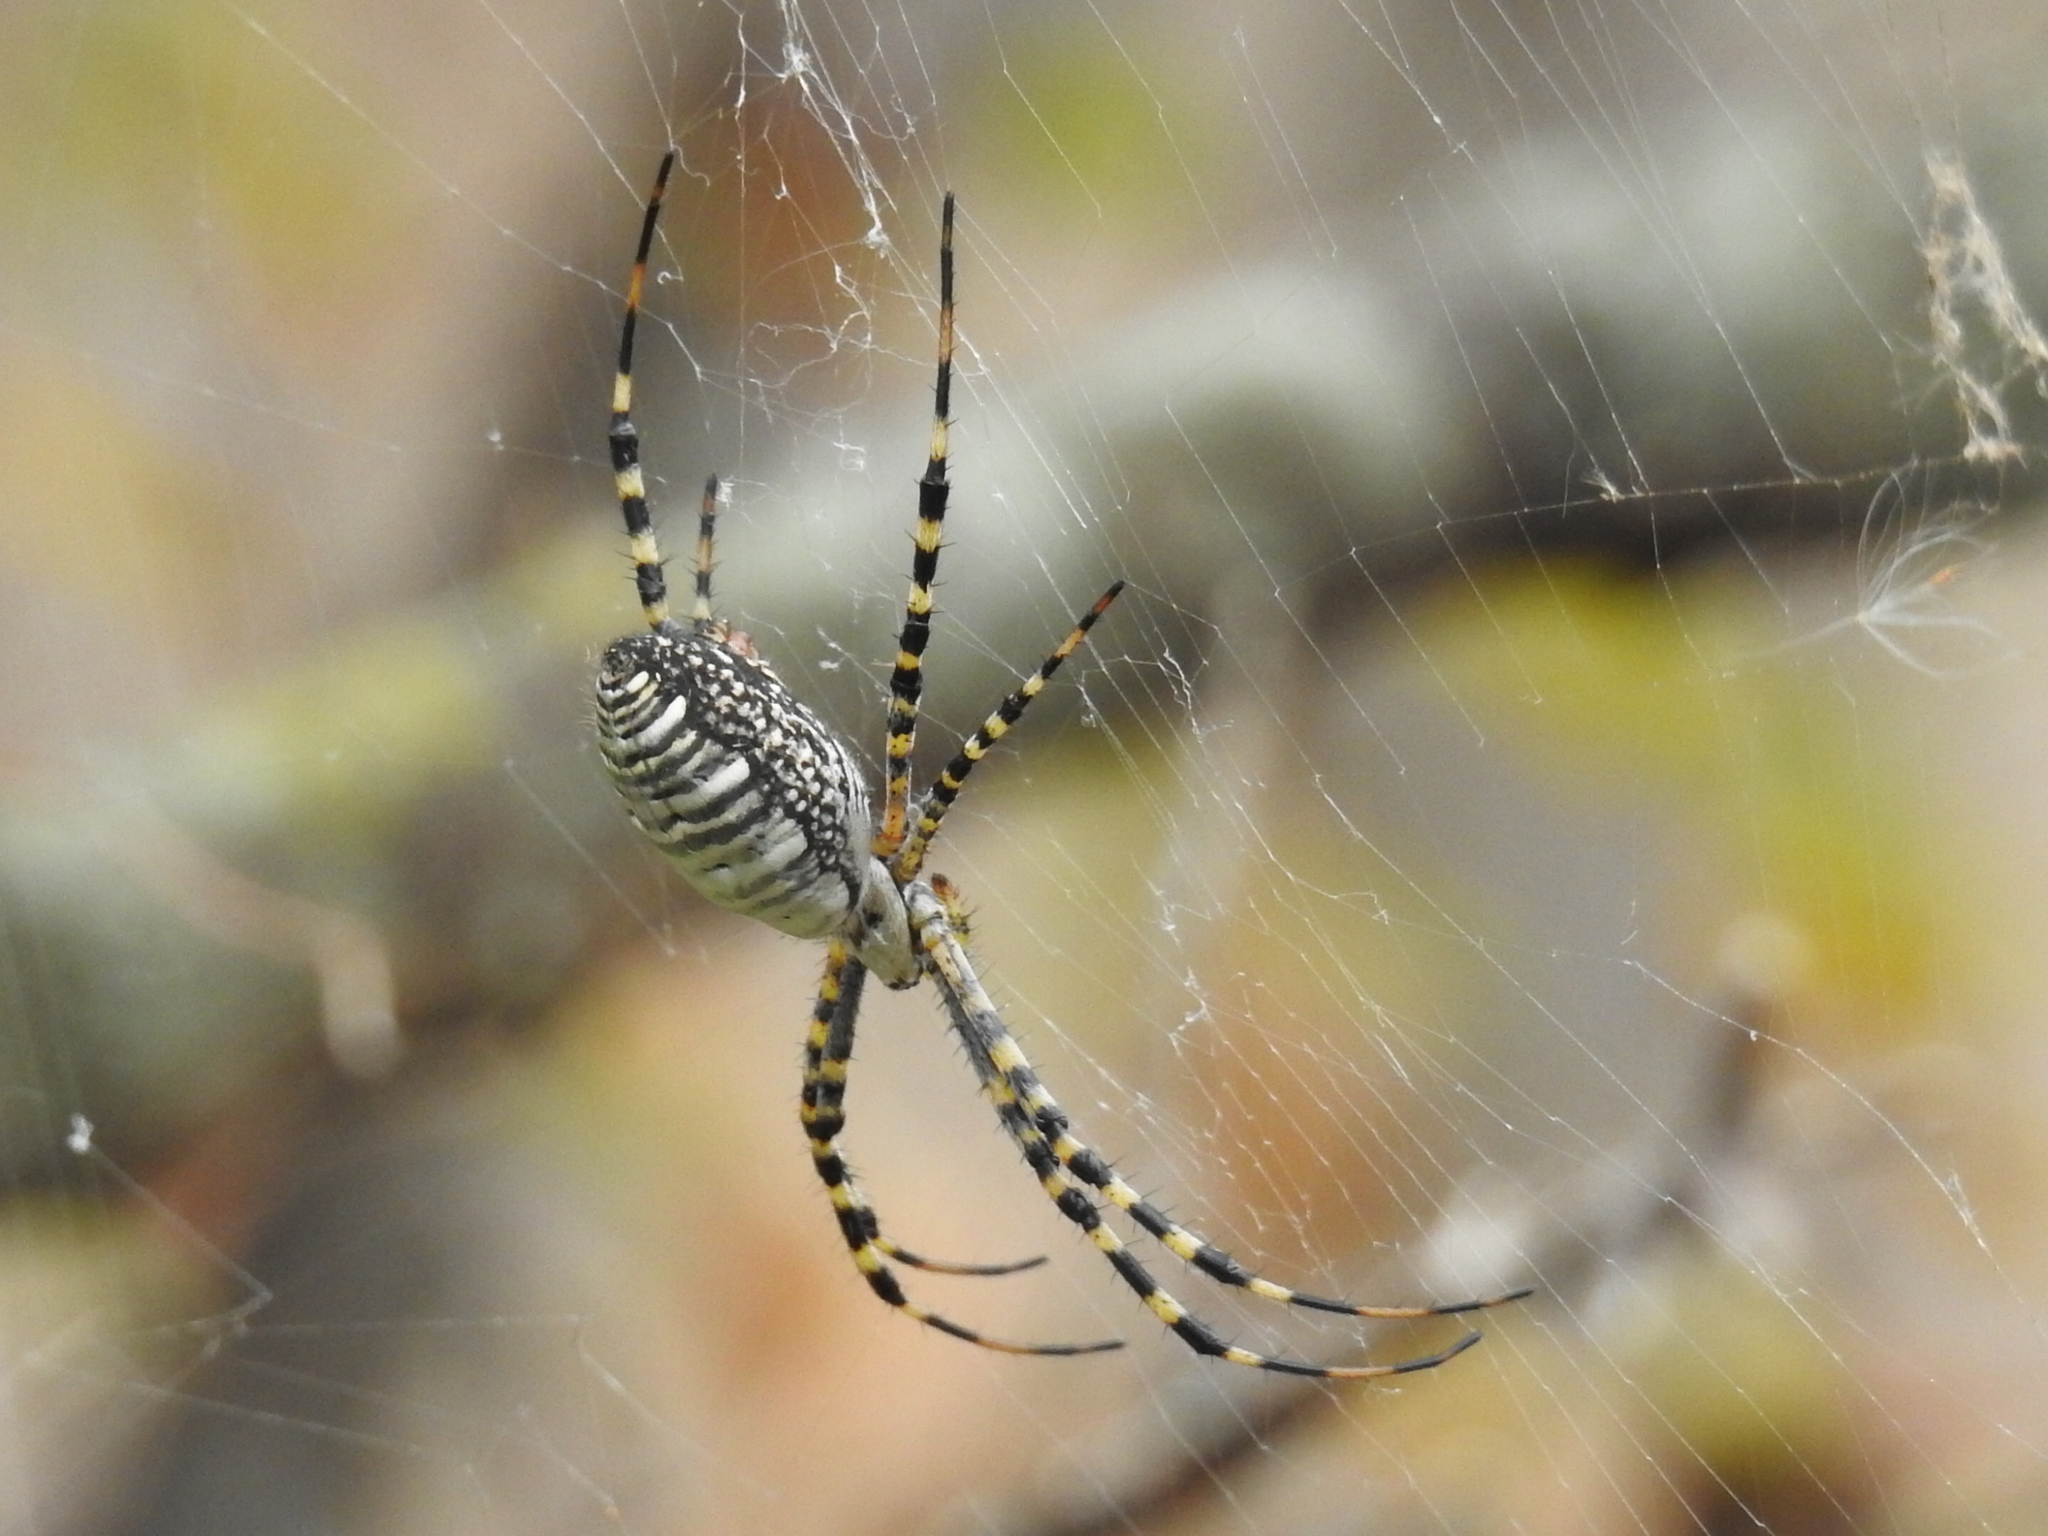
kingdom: Animalia
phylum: Arthropoda
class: Arachnida
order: Araneae
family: Araneidae
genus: Argiope
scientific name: Argiope trifasciata
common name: Banded garden spider
